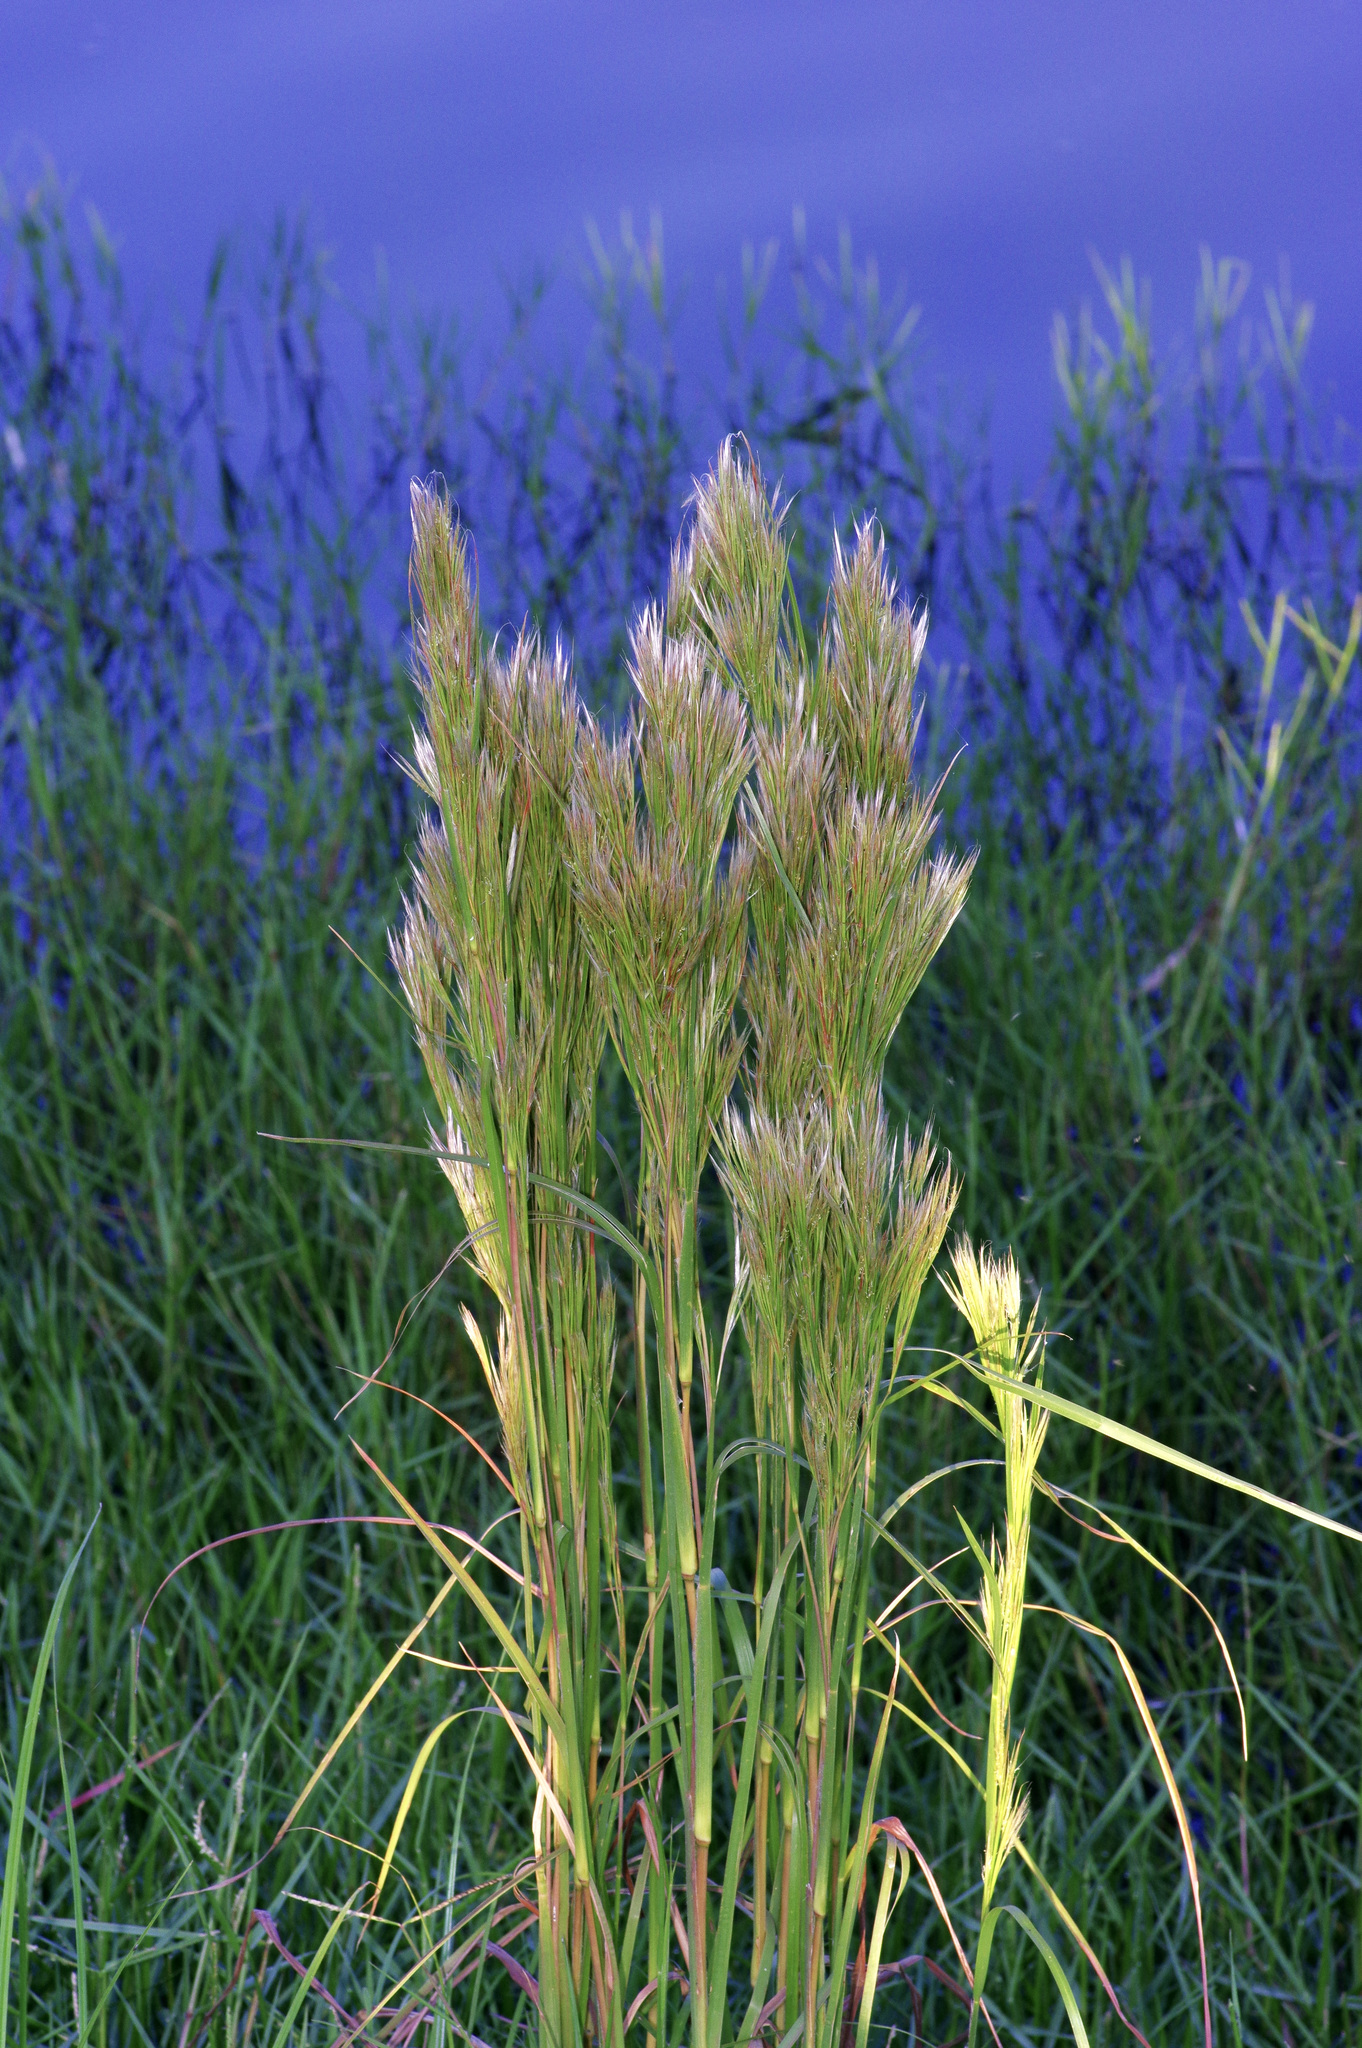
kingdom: Plantae
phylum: Tracheophyta
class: Liliopsida
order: Poales
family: Poaceae
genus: Andropogon
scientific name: Andropogon tenuispatheus
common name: Bushy bluestem
